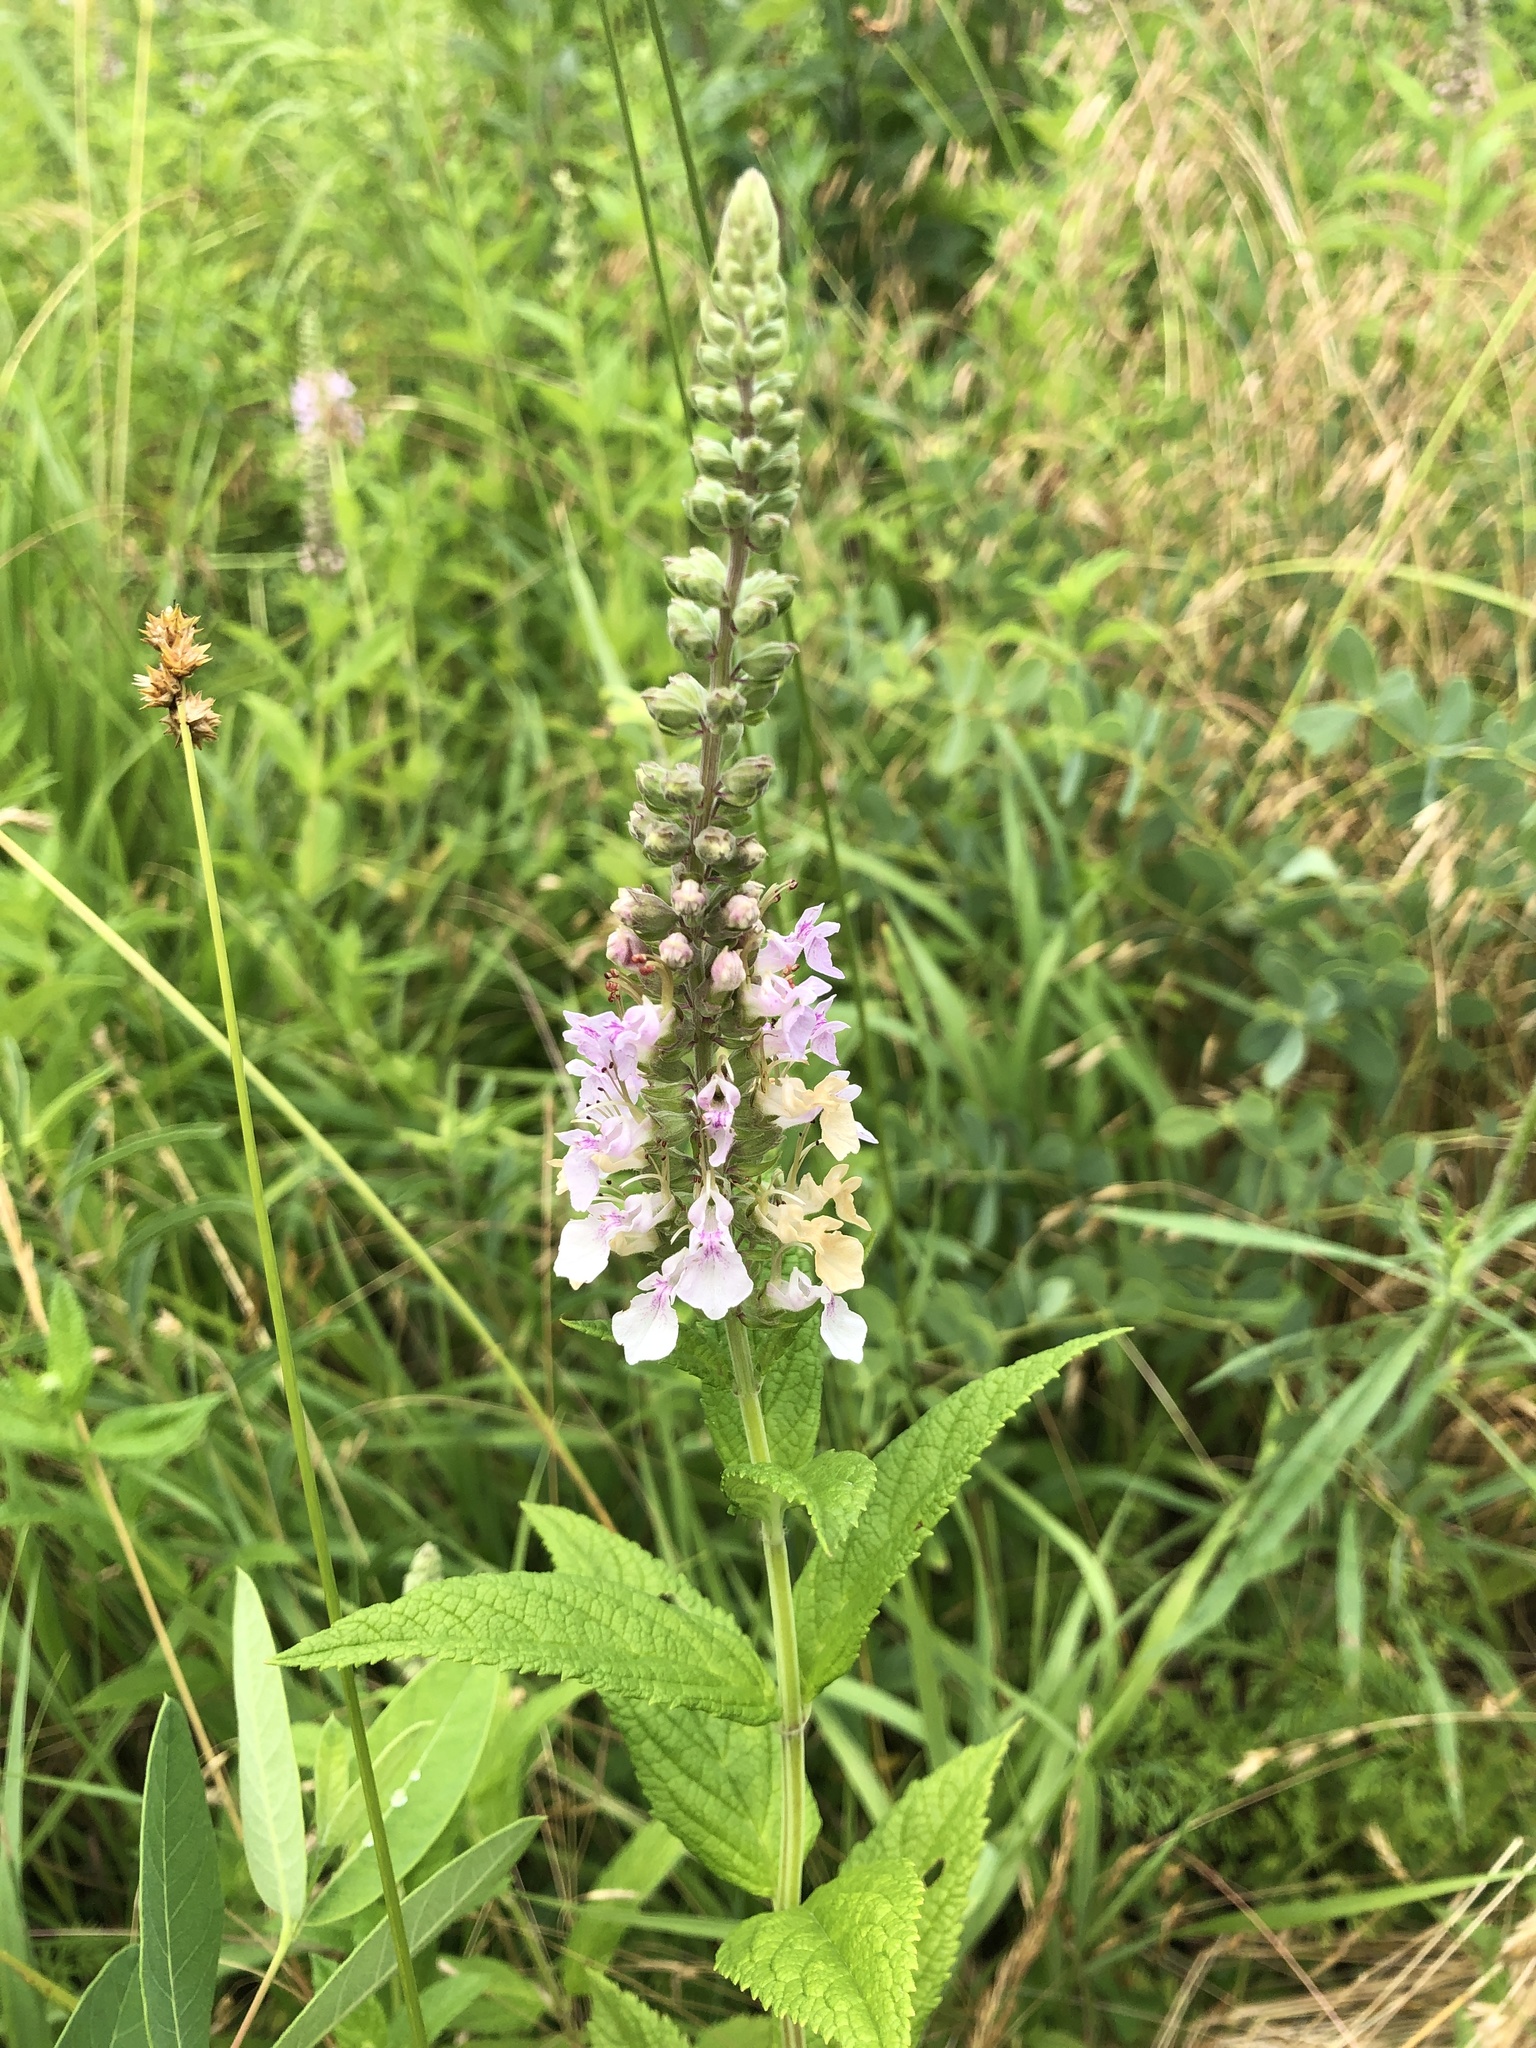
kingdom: Plantae
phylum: Tracheophyta
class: Magnoliopsida
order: Lamiales
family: Lamiaceae
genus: Teucrium
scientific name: Teucrium canadense
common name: American germander
